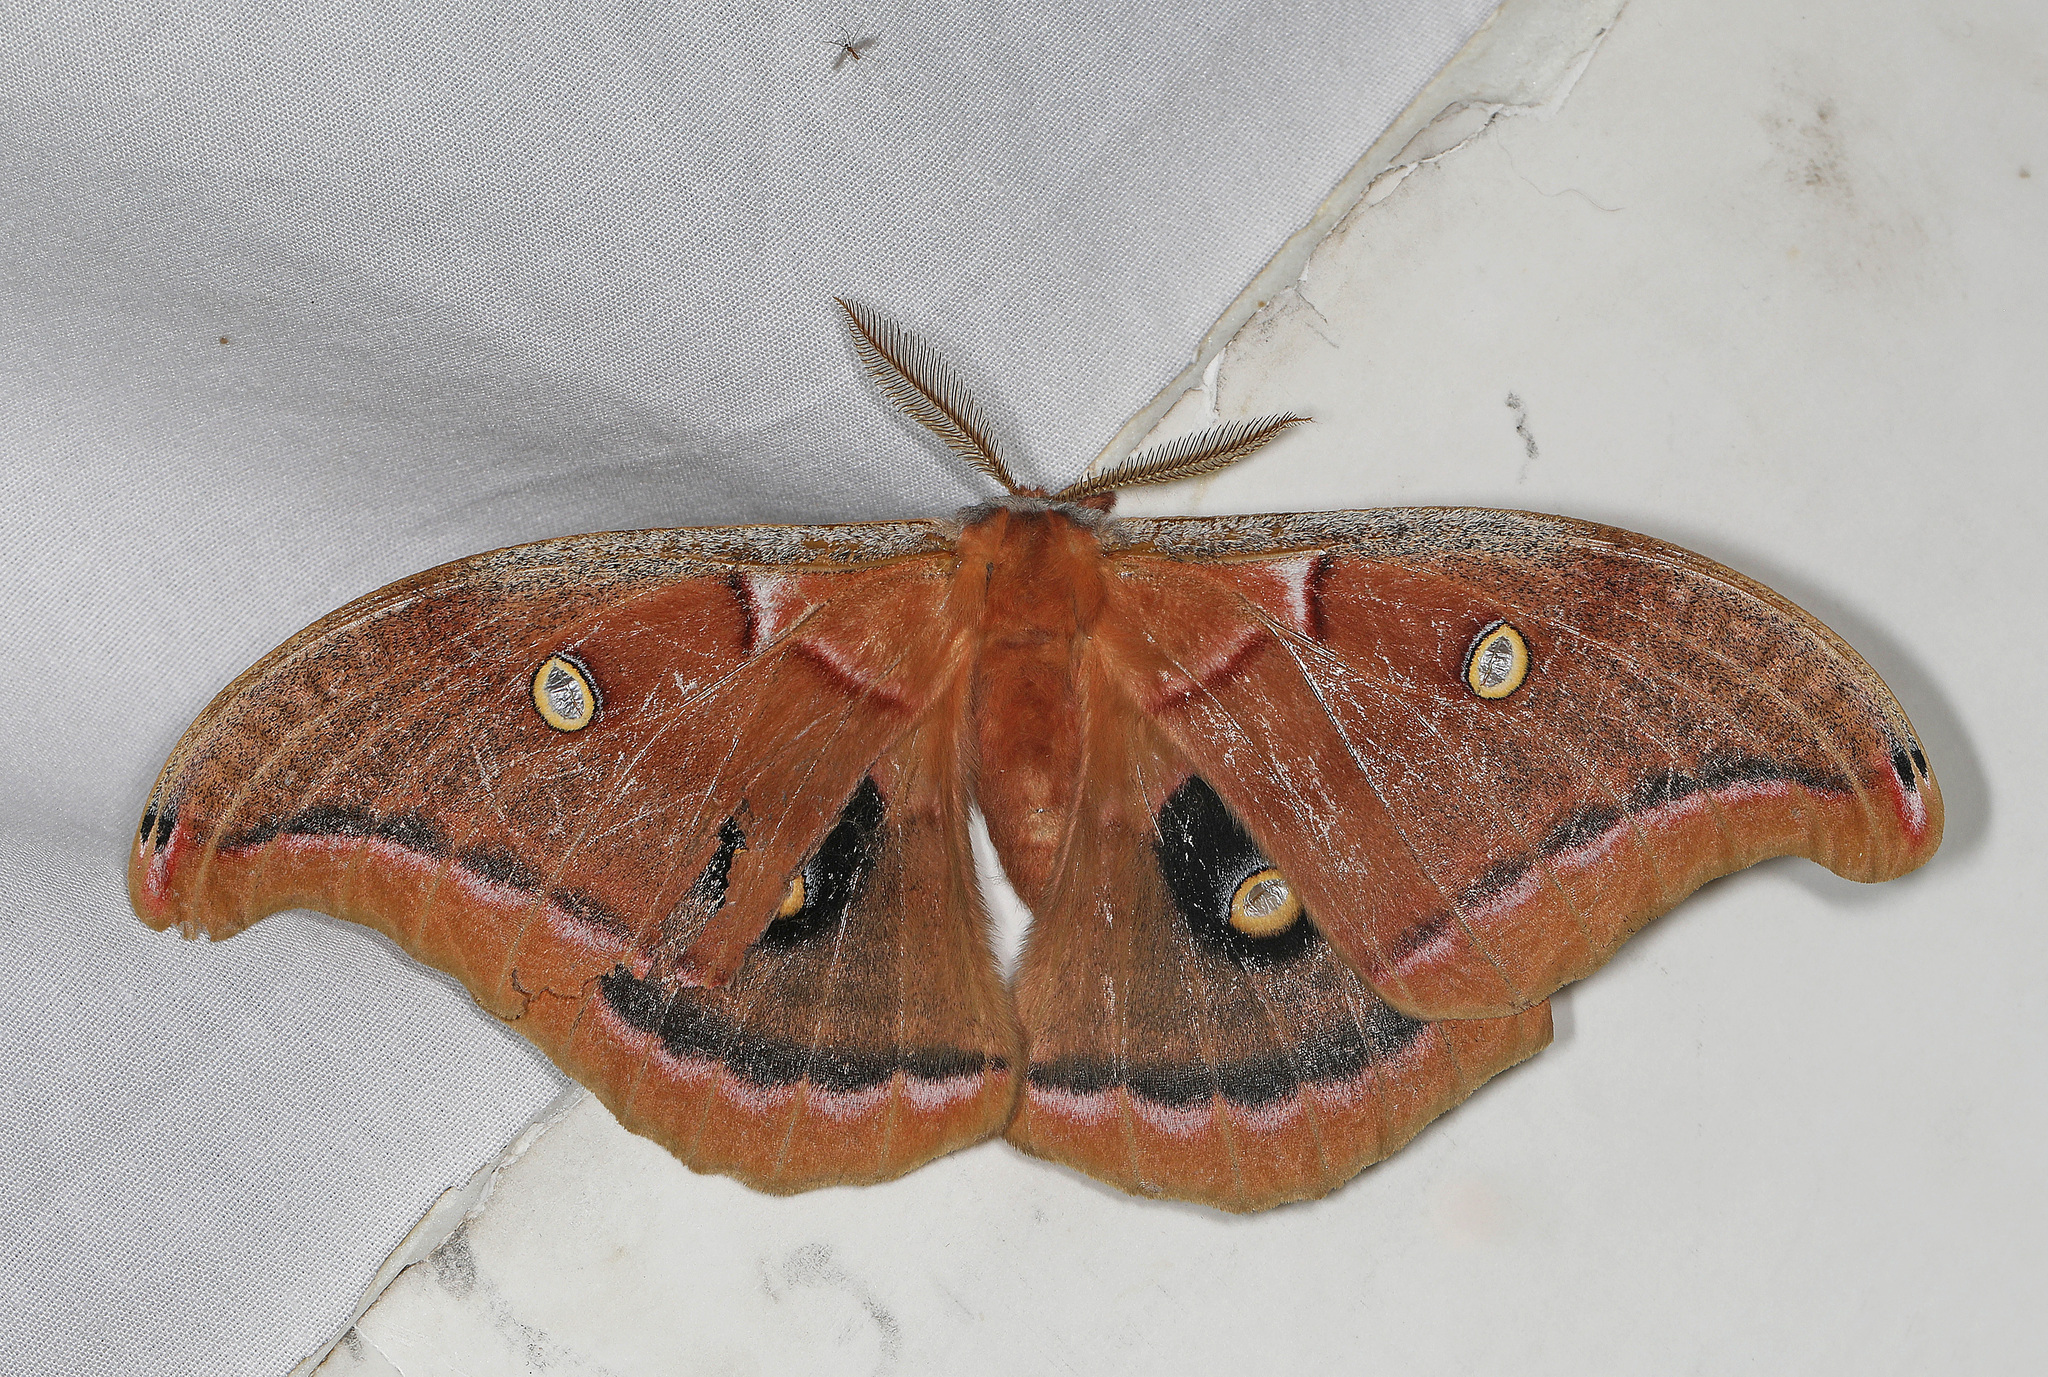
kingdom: Animalia
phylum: Arthropoda
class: Insecta
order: Lepidoptera
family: Saturniidae
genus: Antheraea
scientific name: Antheraea polyphemus
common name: Polyphemus moth
